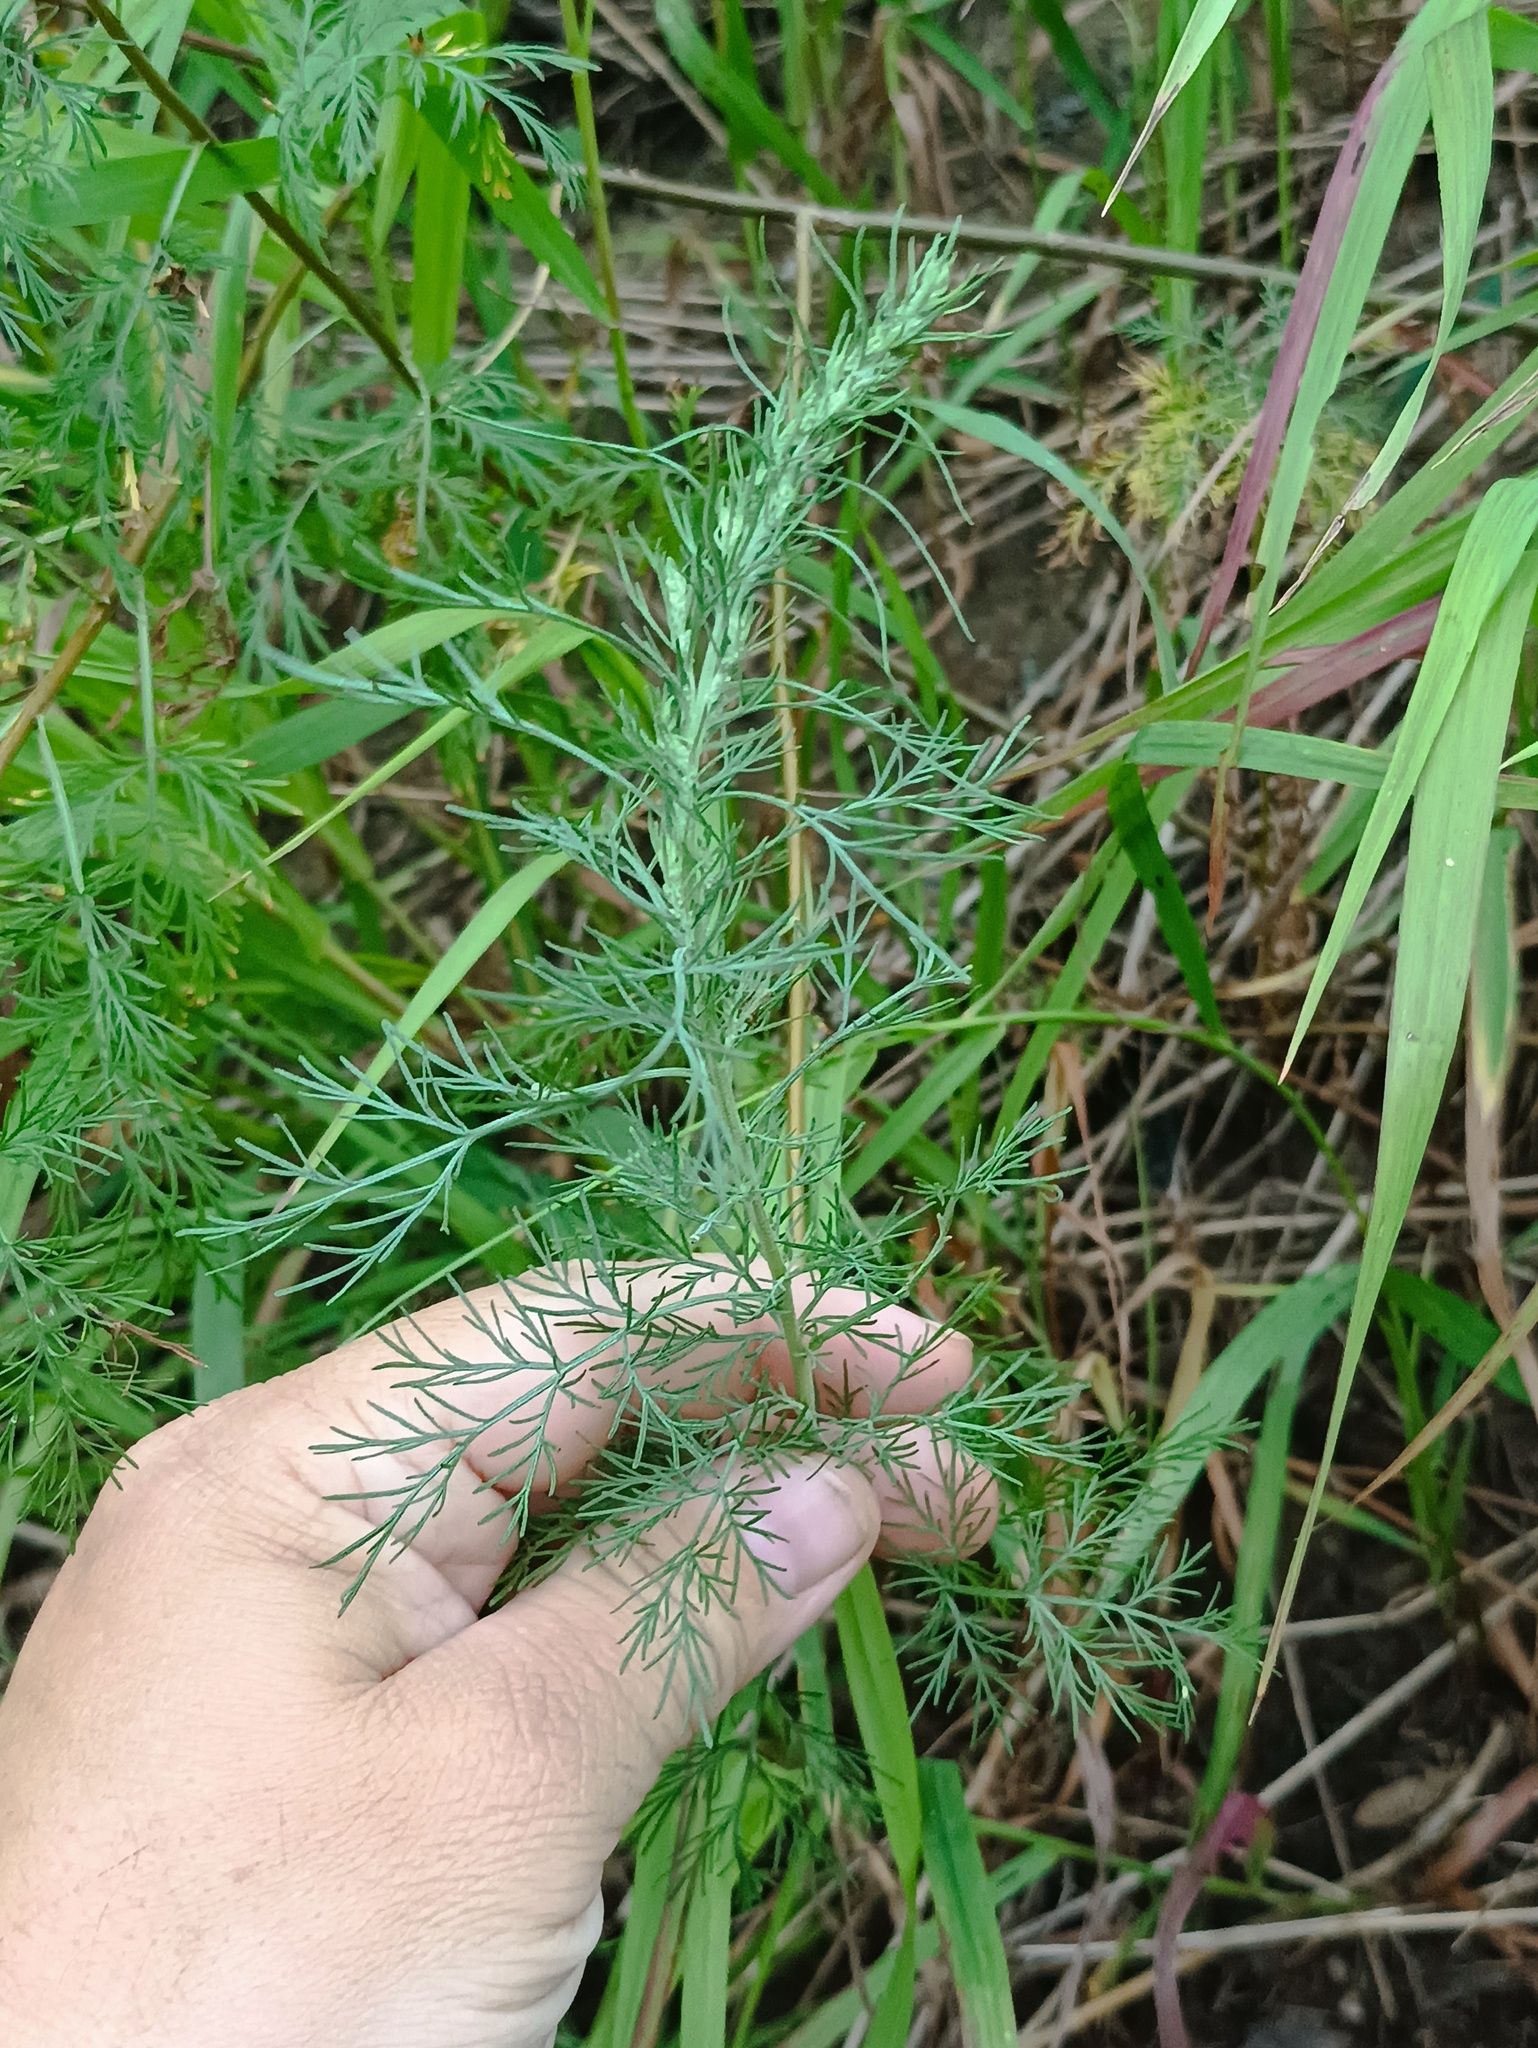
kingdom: Plantae
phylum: Tracheophyta
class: Magnoliopsida
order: Asterales
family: Asteraceae
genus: Artemisia
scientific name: Artemisia abrotanum
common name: Southernwood
